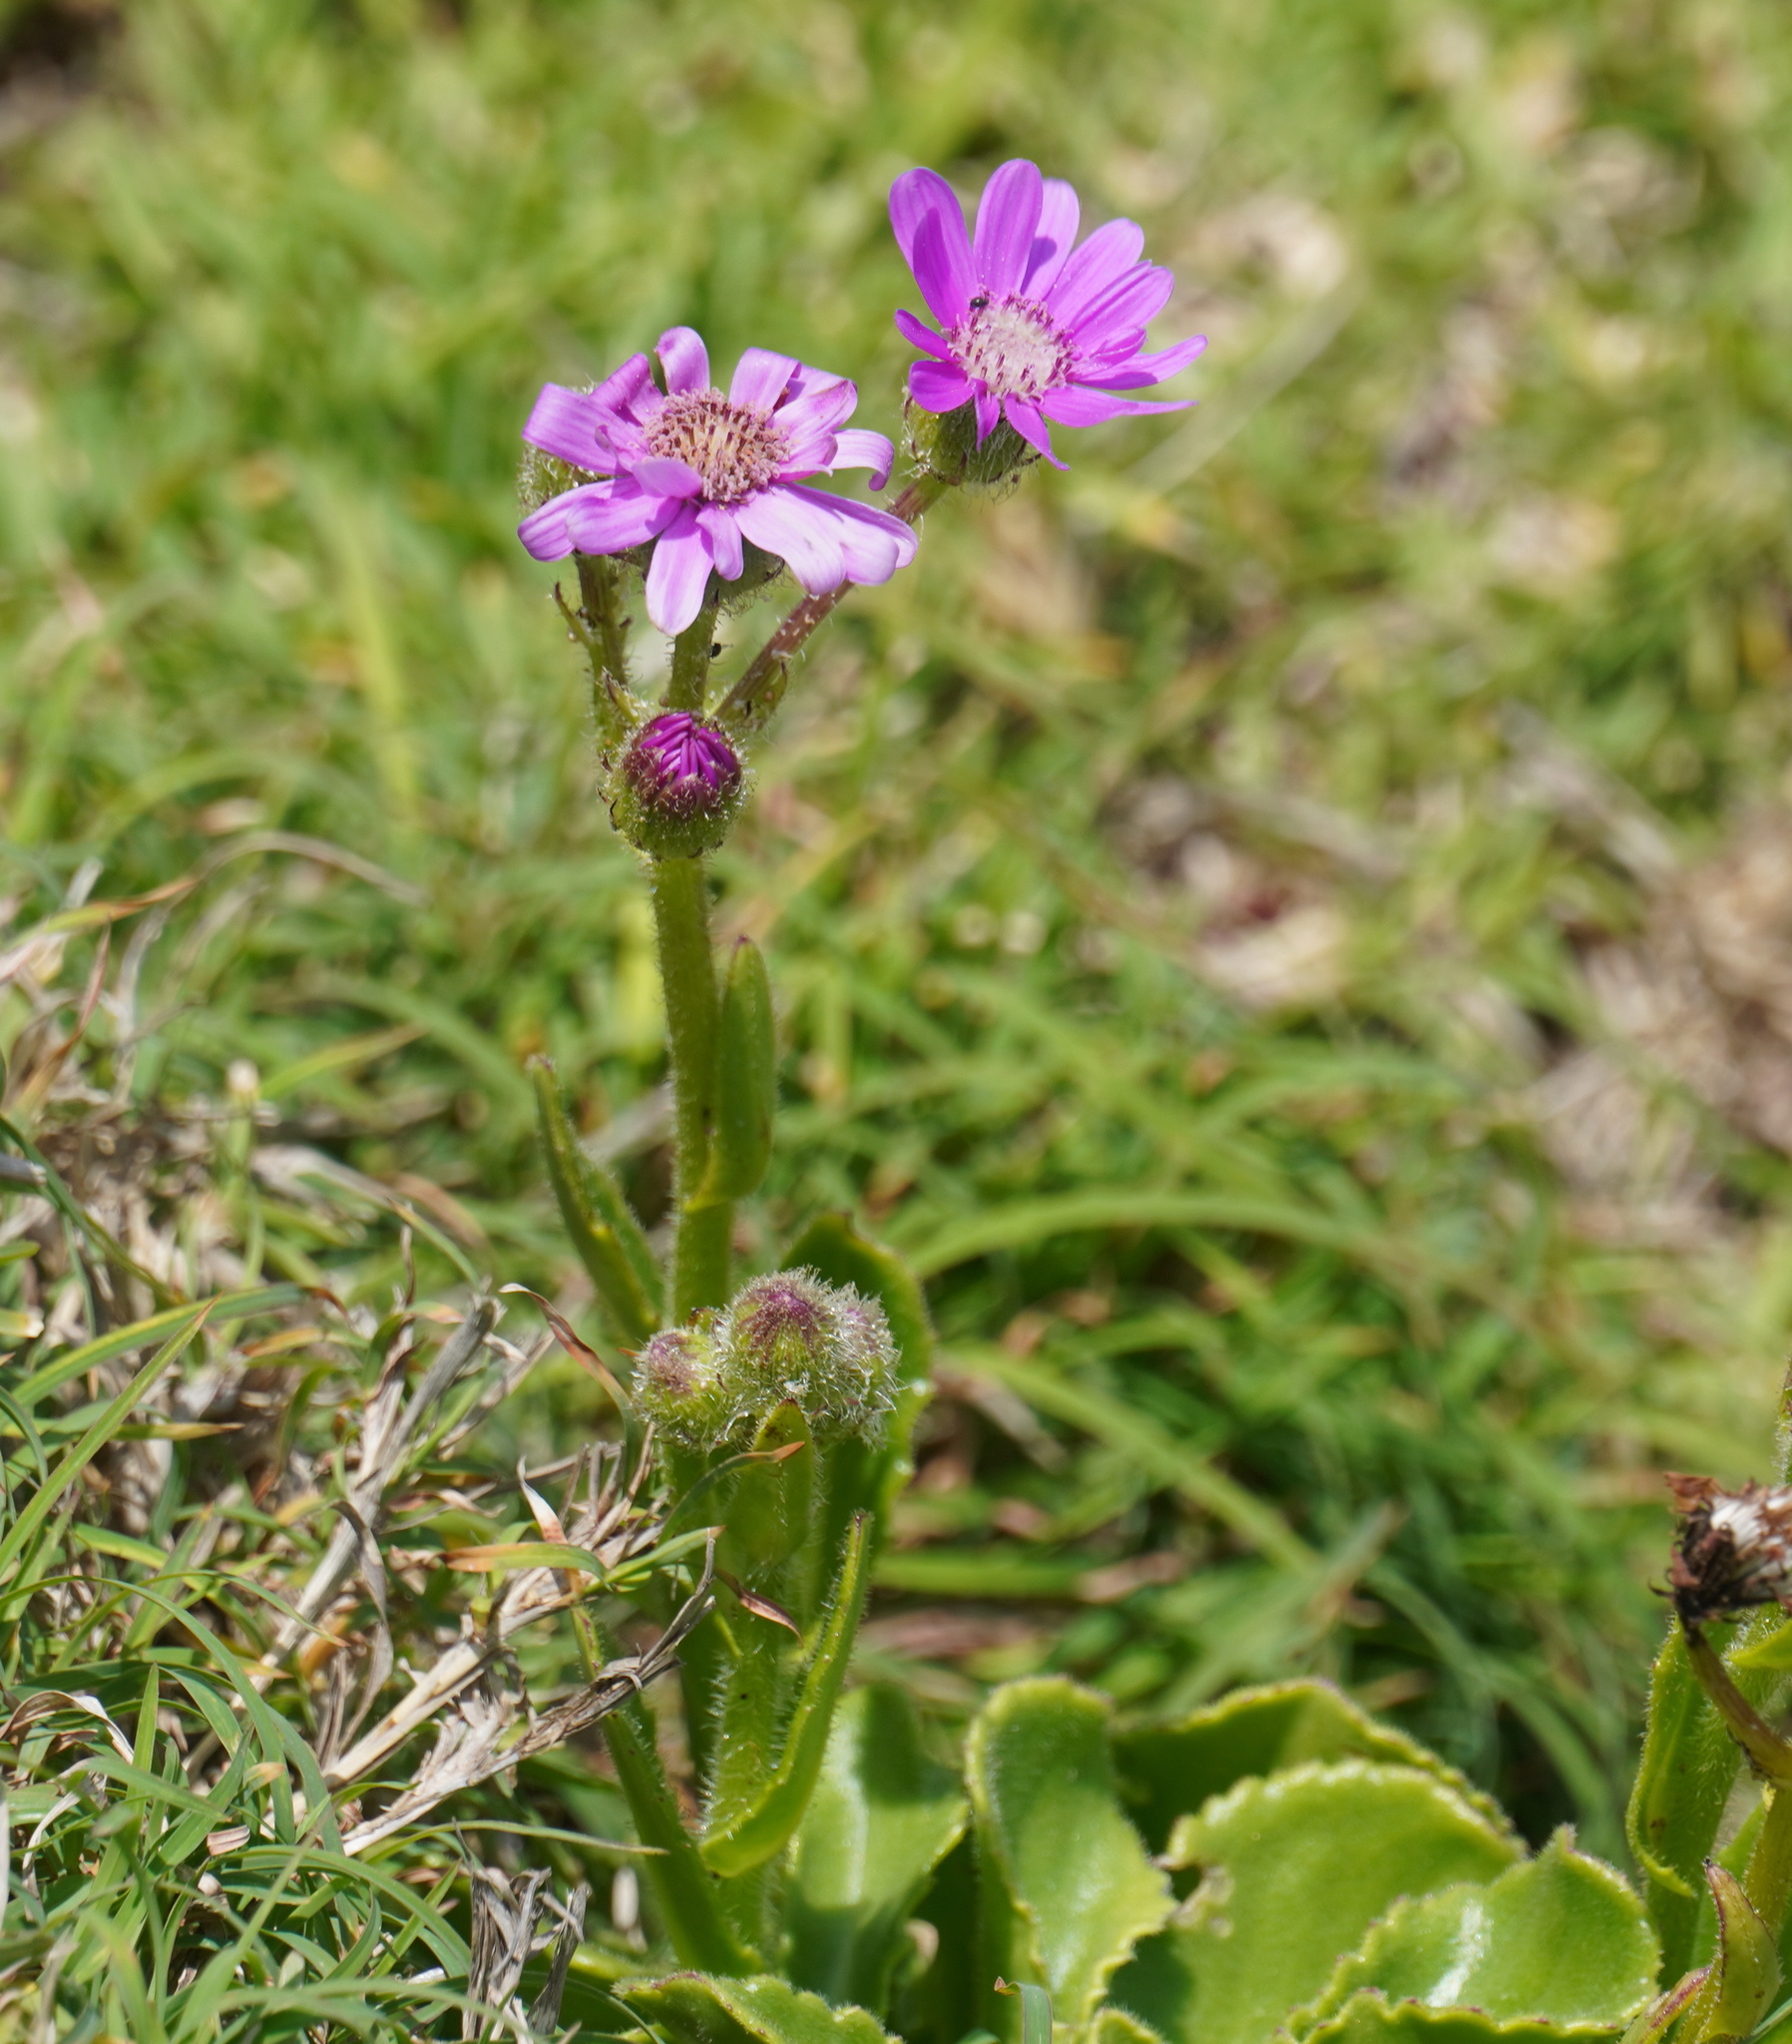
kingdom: Plantae
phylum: Tracheophyta
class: Magnoliopsida
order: Asterales
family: Asteraceae
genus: Senecio
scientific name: Senecio elegans
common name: Purple groundsel
